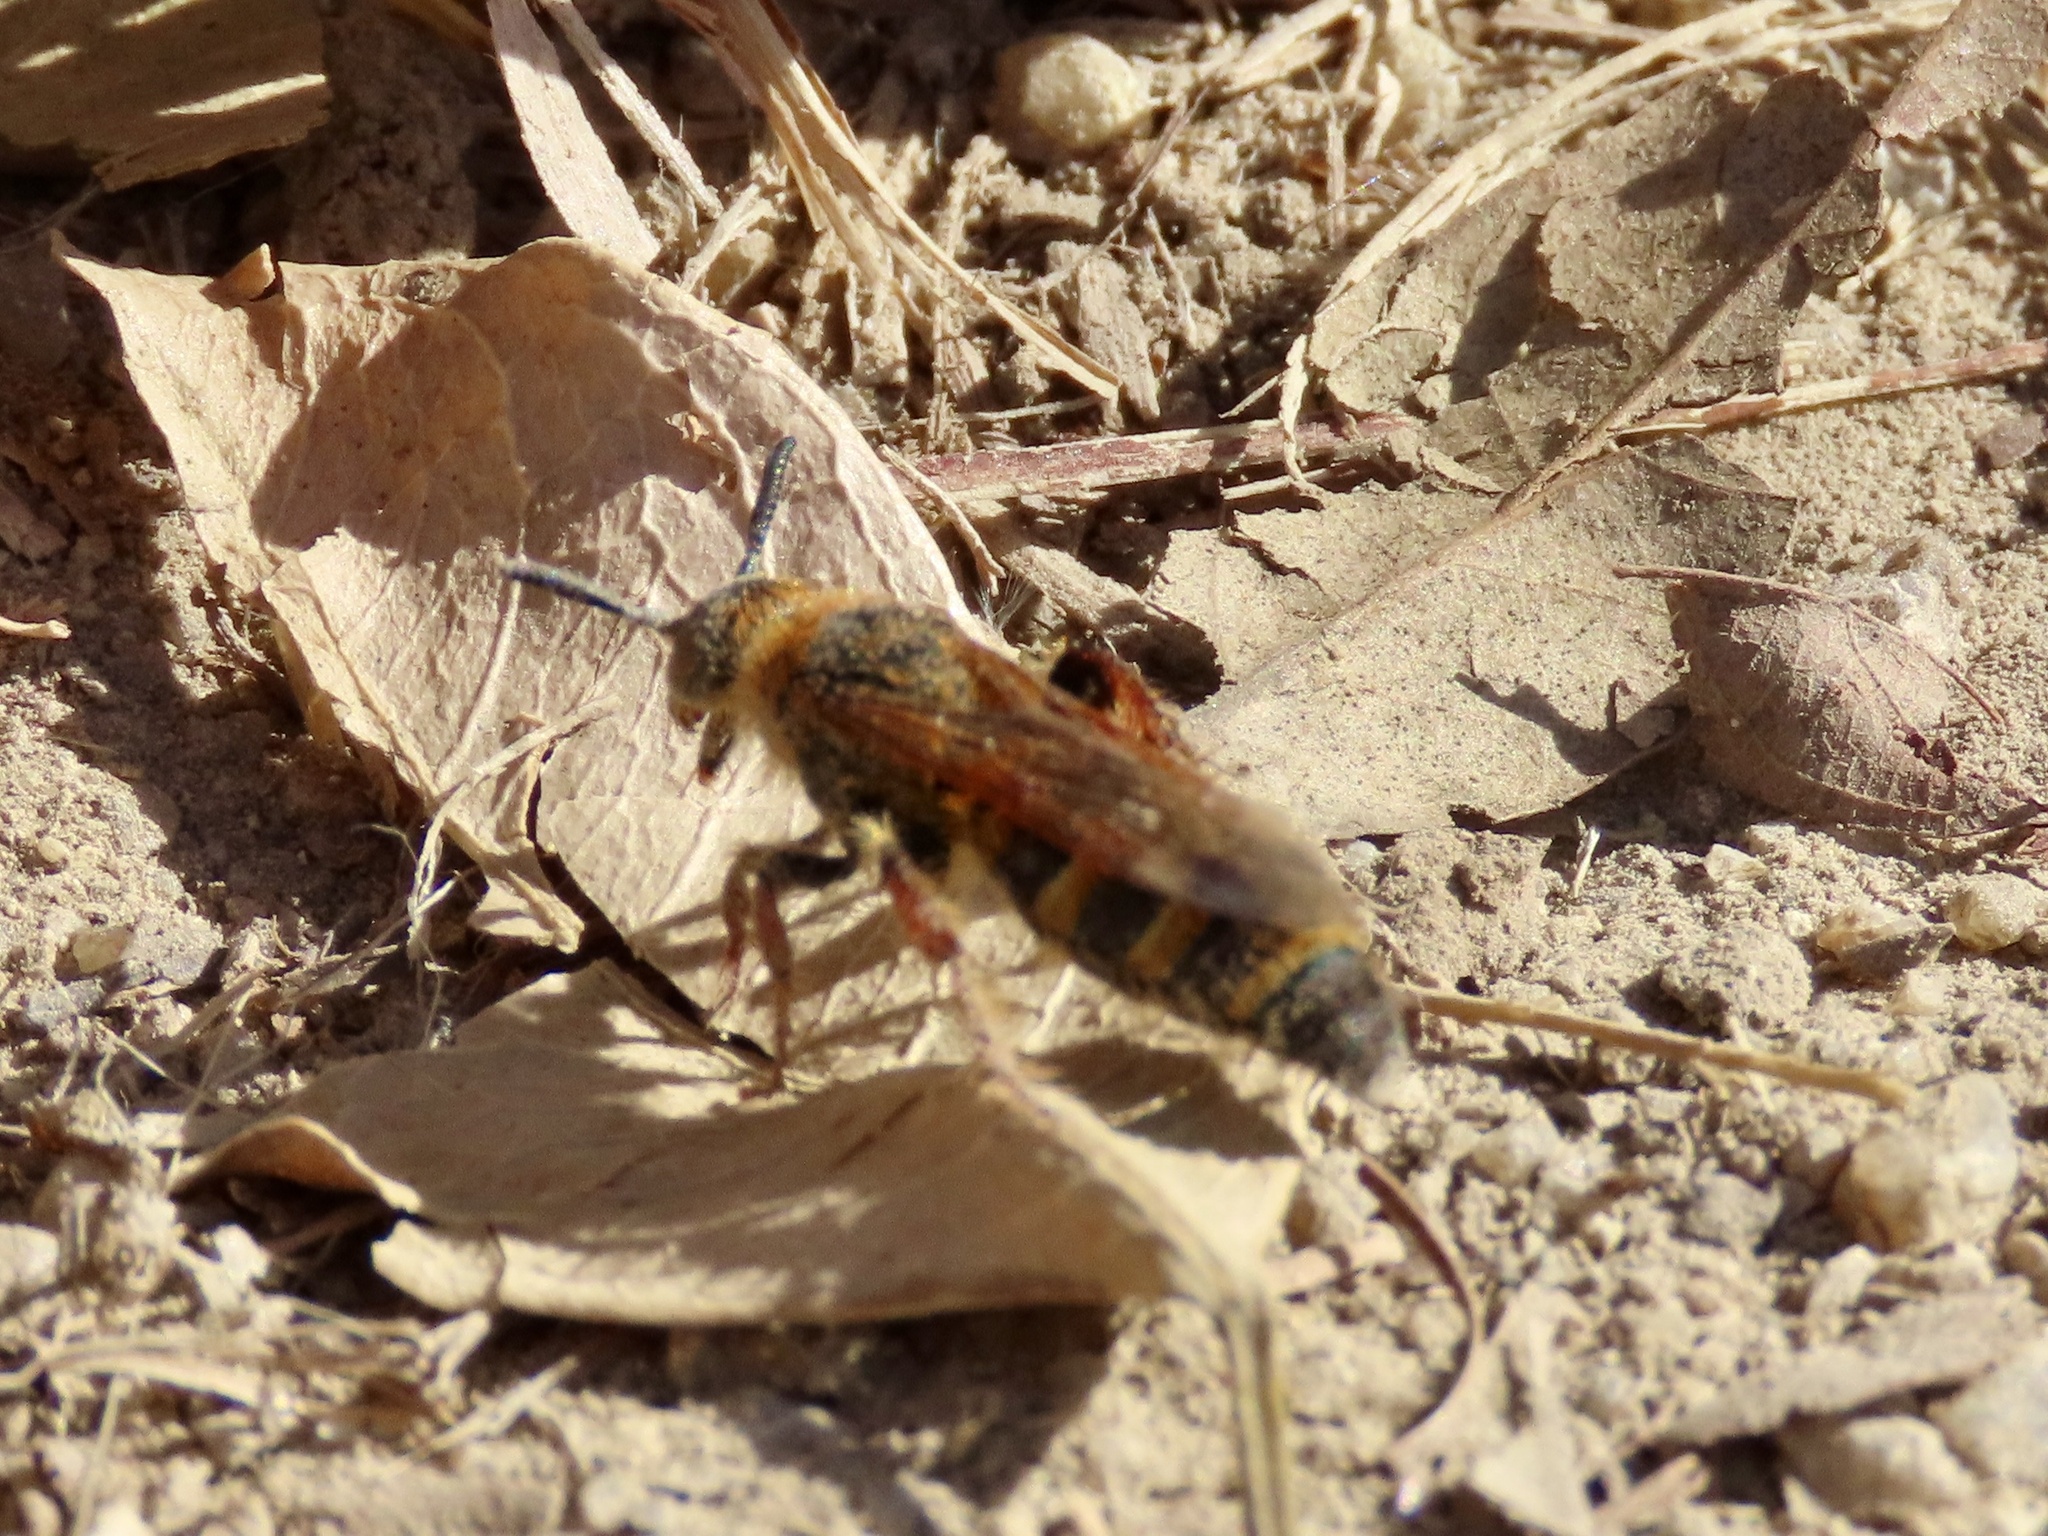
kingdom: Animalia
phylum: Arthropoda
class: Insecta
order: Hymenoptera
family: Scoliidae
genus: Campsomeris
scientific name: Campsomeris phalerata
